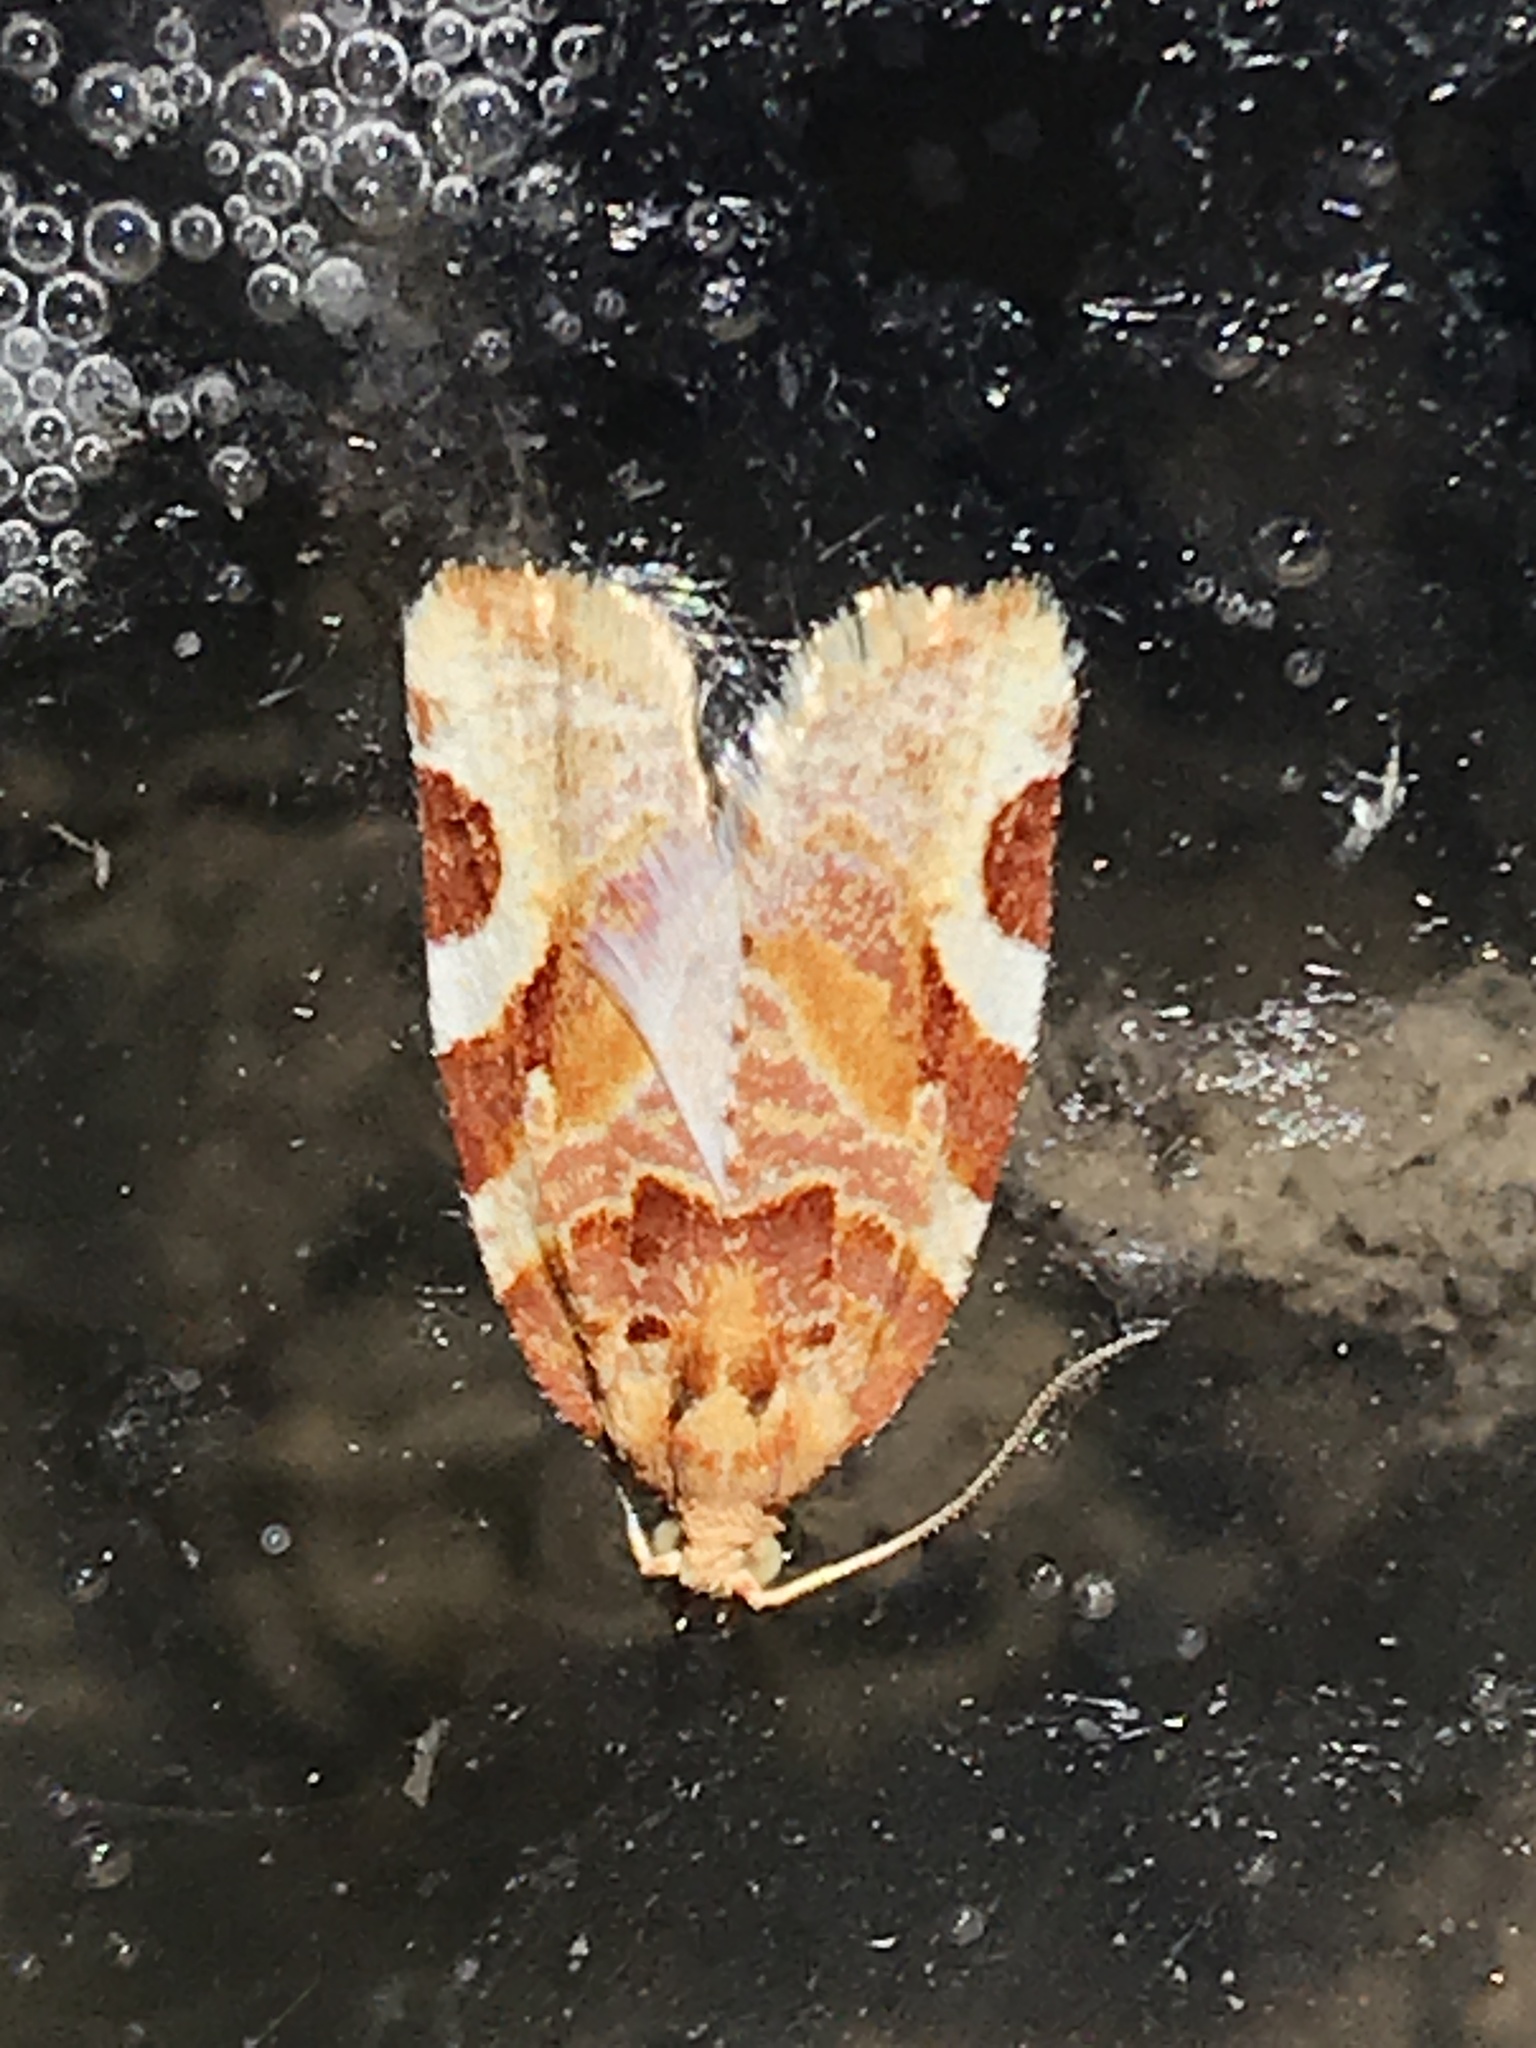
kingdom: Animalia
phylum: Arthropoda
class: Insecta
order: Lepidoptera
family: Tortricidae
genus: Argyrotaenia
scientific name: Argyrotaenia coloradanus
